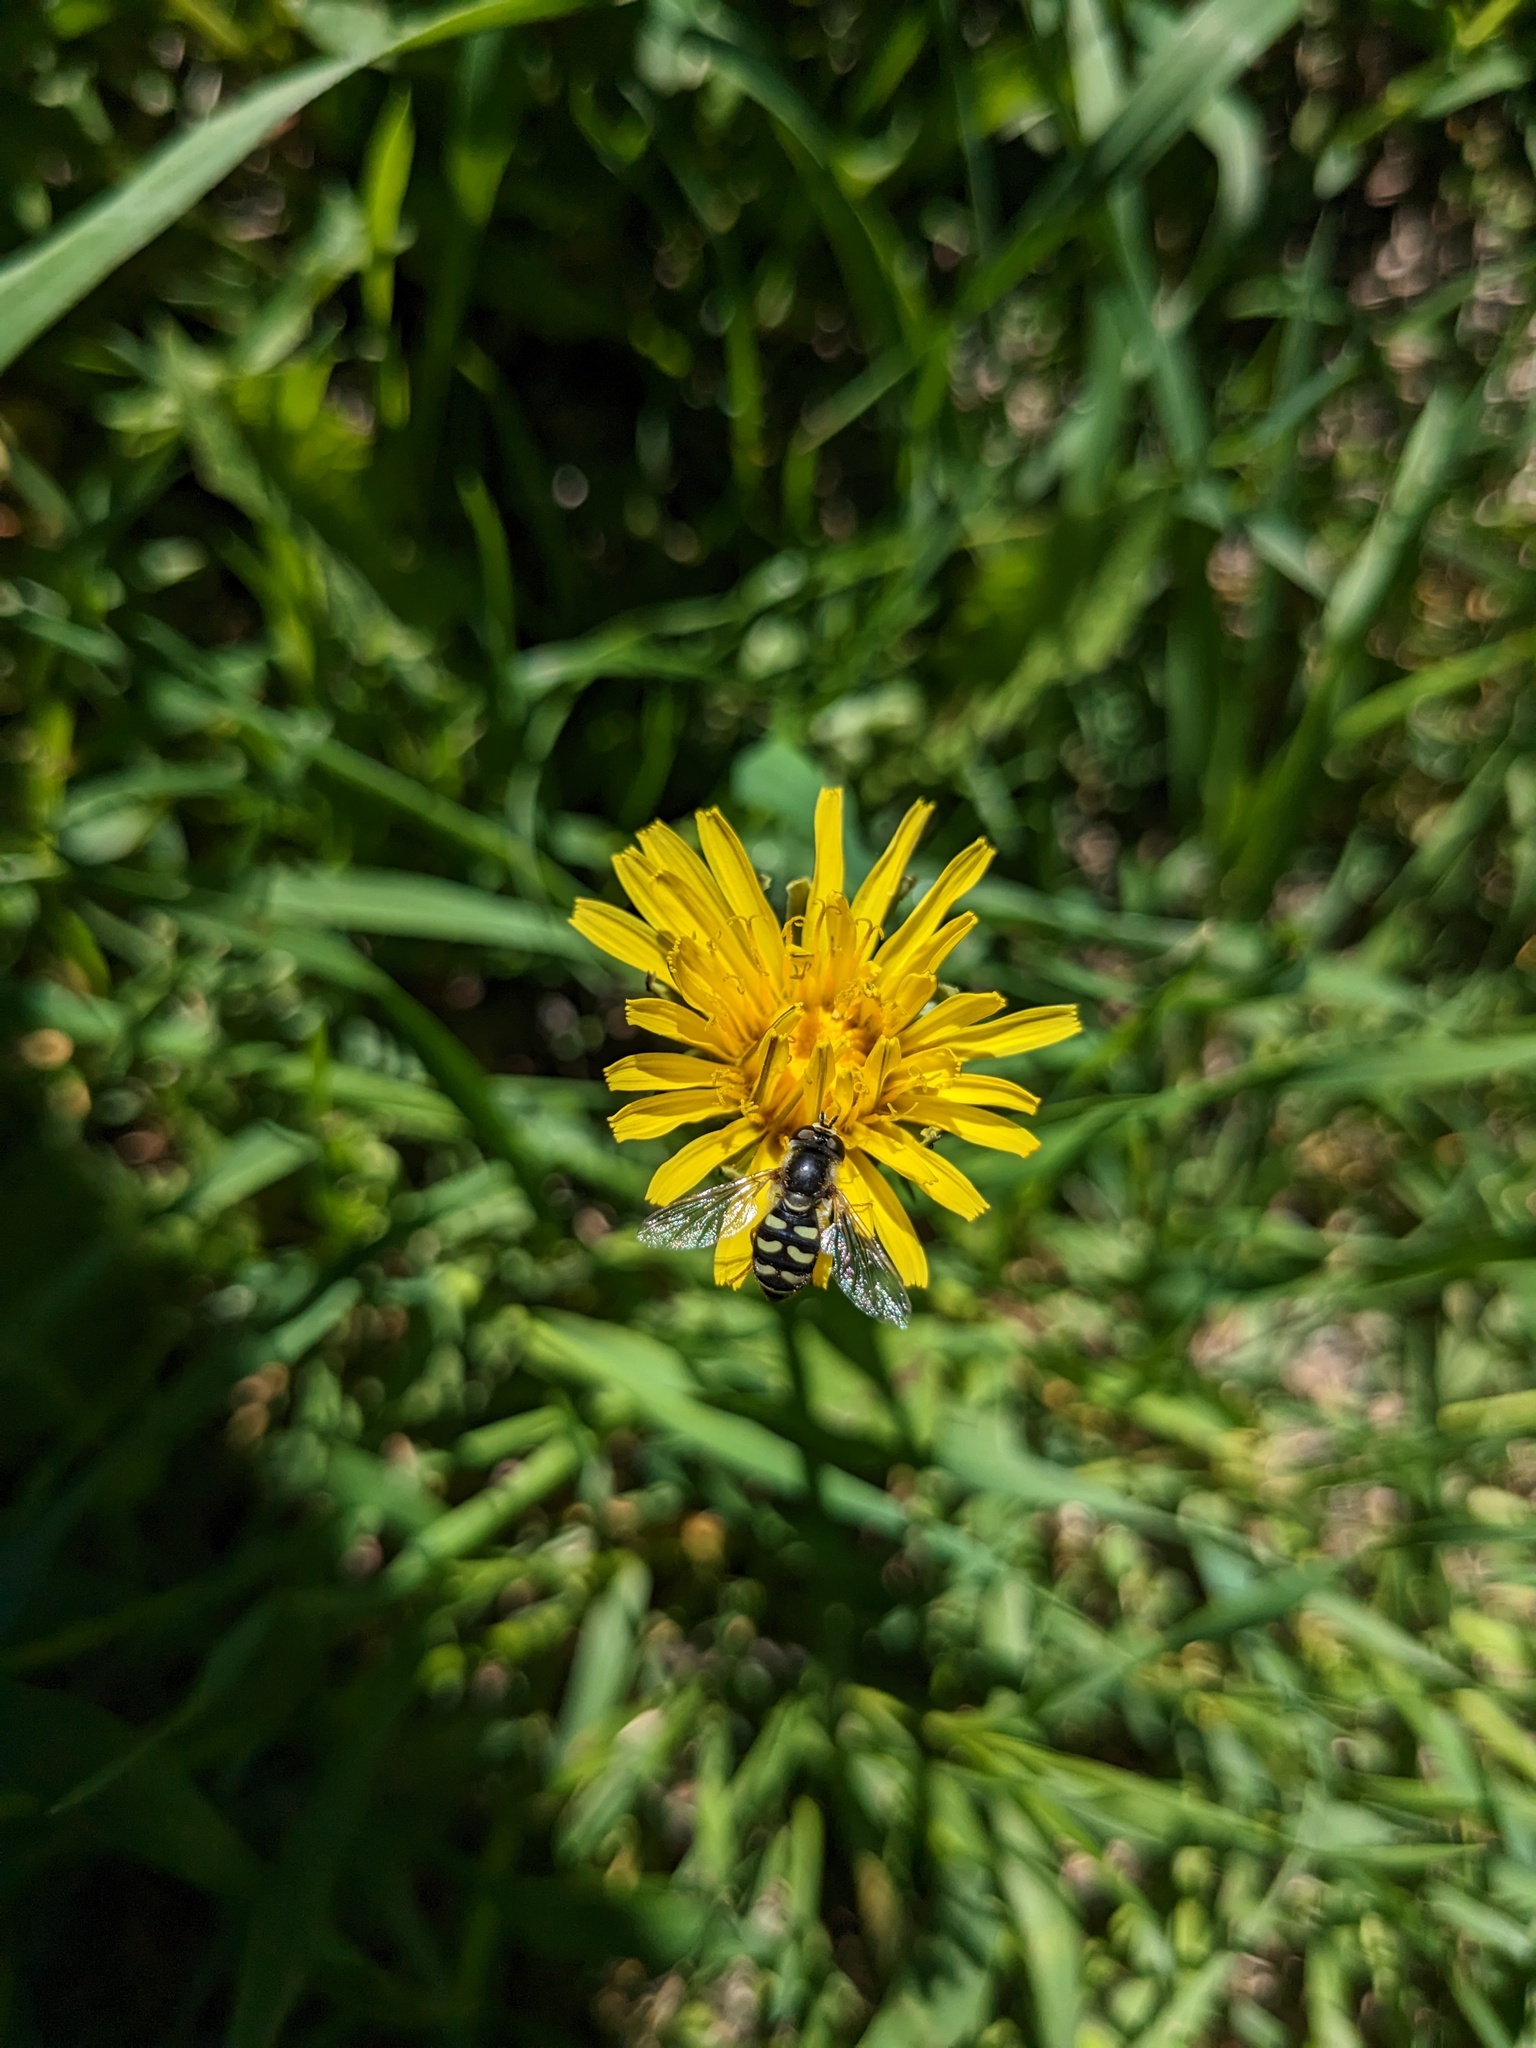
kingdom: Animalia
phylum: Arthropoda
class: Insecta
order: Diptera
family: Syrphidae
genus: Eupeodes
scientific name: Eupeodes volucris
